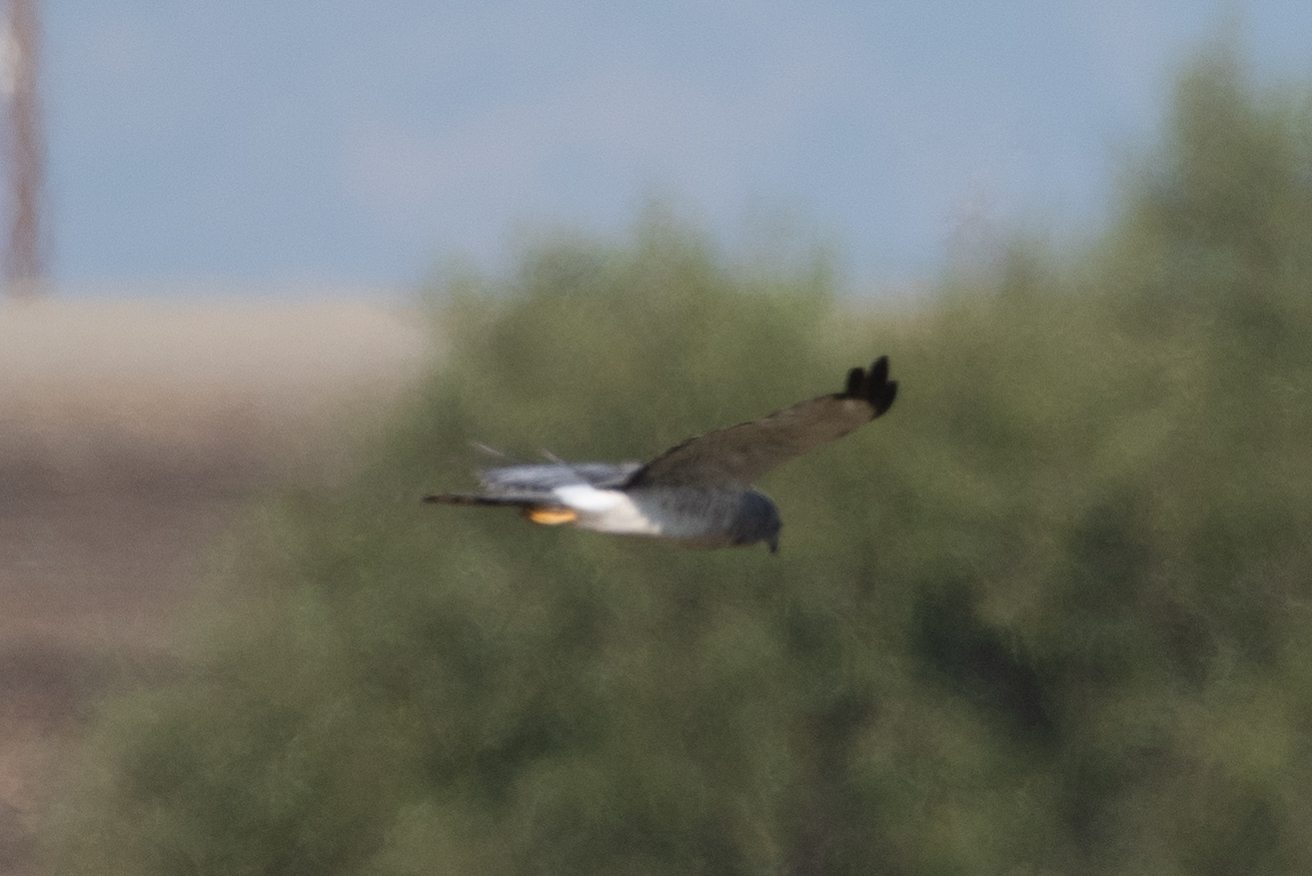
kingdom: Animalia
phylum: Chordata
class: Aves
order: Accipitriformes
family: Accipitridae
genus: Circus
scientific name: Circus cyaneus
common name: Hen harrier
